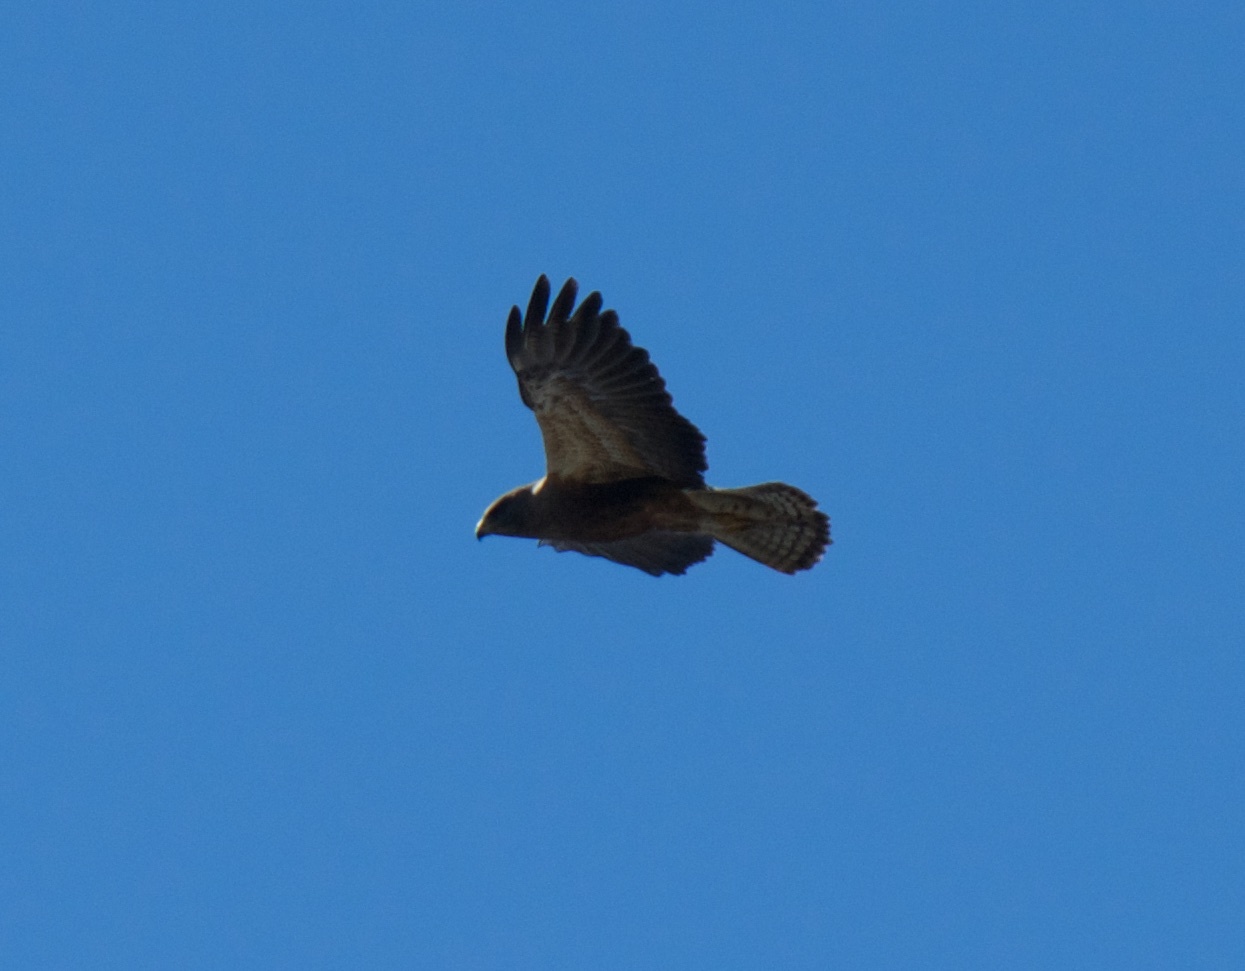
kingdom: Animalia
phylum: Chordata
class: Aves
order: Accipitriformes
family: Accipitridae
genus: Buteo
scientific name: Buteo swainsoni
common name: Swainson's hawk
